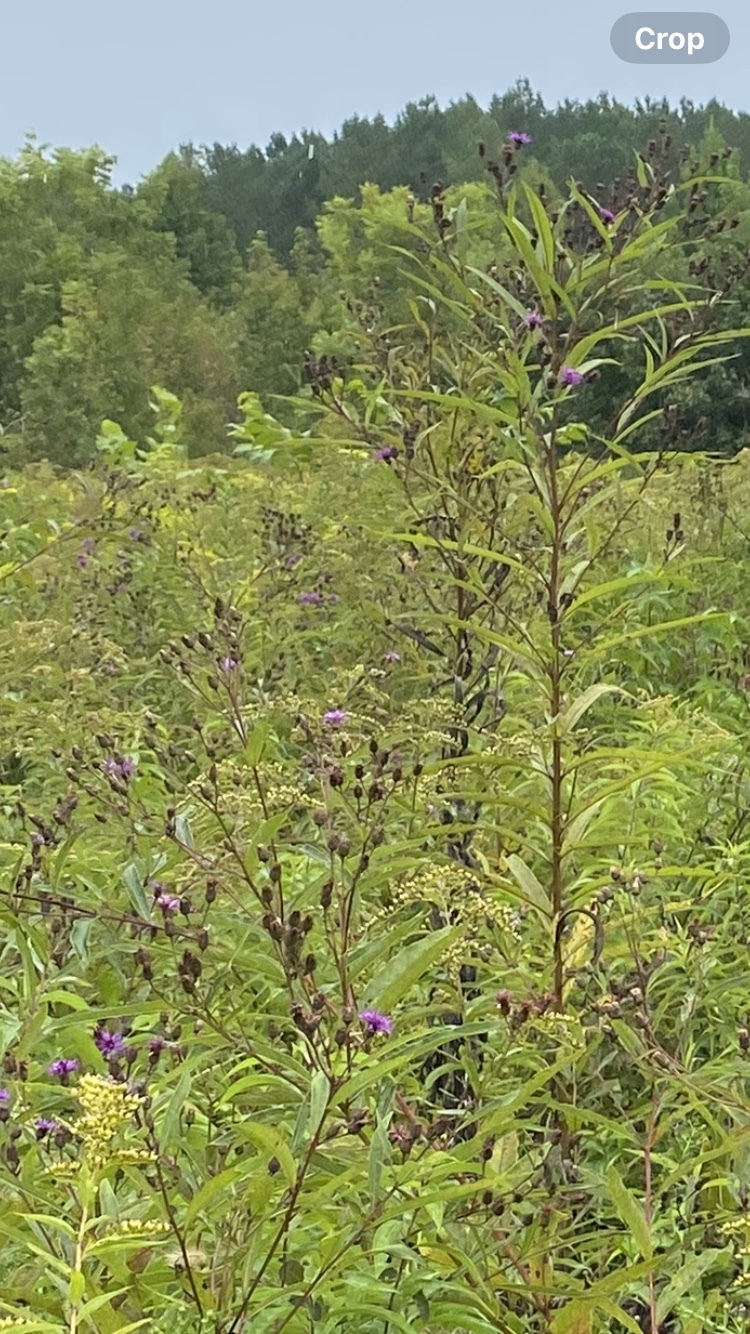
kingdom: Plantae
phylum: Tracheophyta
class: Magnoliopsida
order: Asterales
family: Asteraceae
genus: Vernonia
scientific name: Vernonia noveboracensis
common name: New york ironweed
